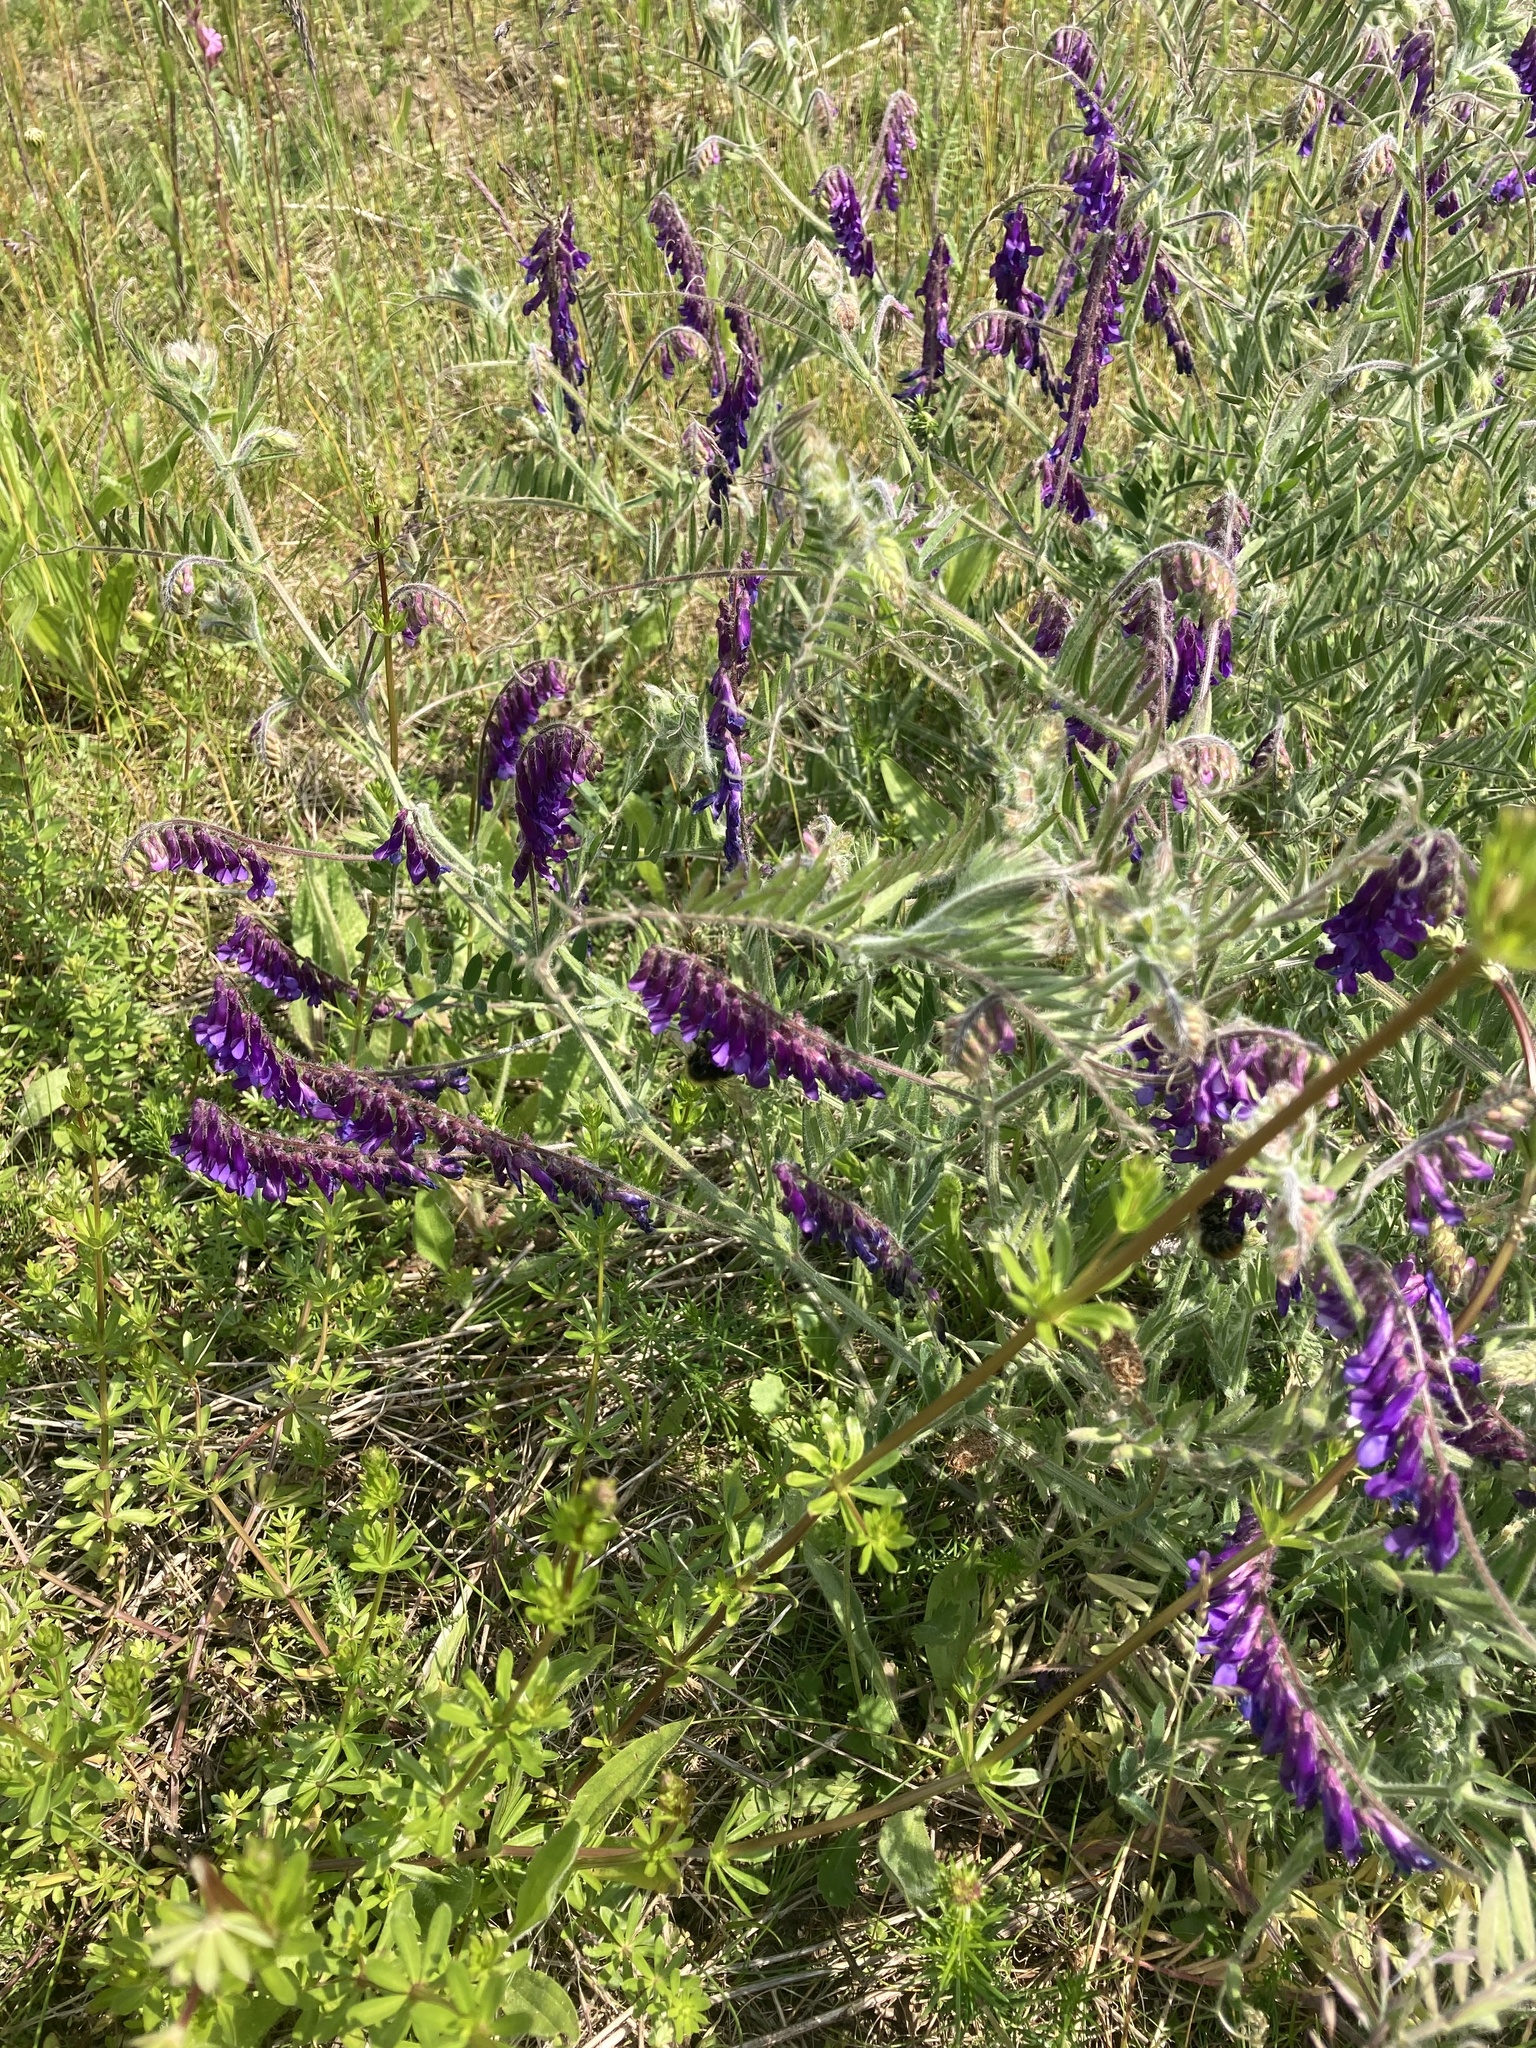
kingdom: Plantae
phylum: Tracheophyta
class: Magnoliopsida
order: Fabales
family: Fabaceae
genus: Vicia
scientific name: Vicia cracca
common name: Bird vetch
